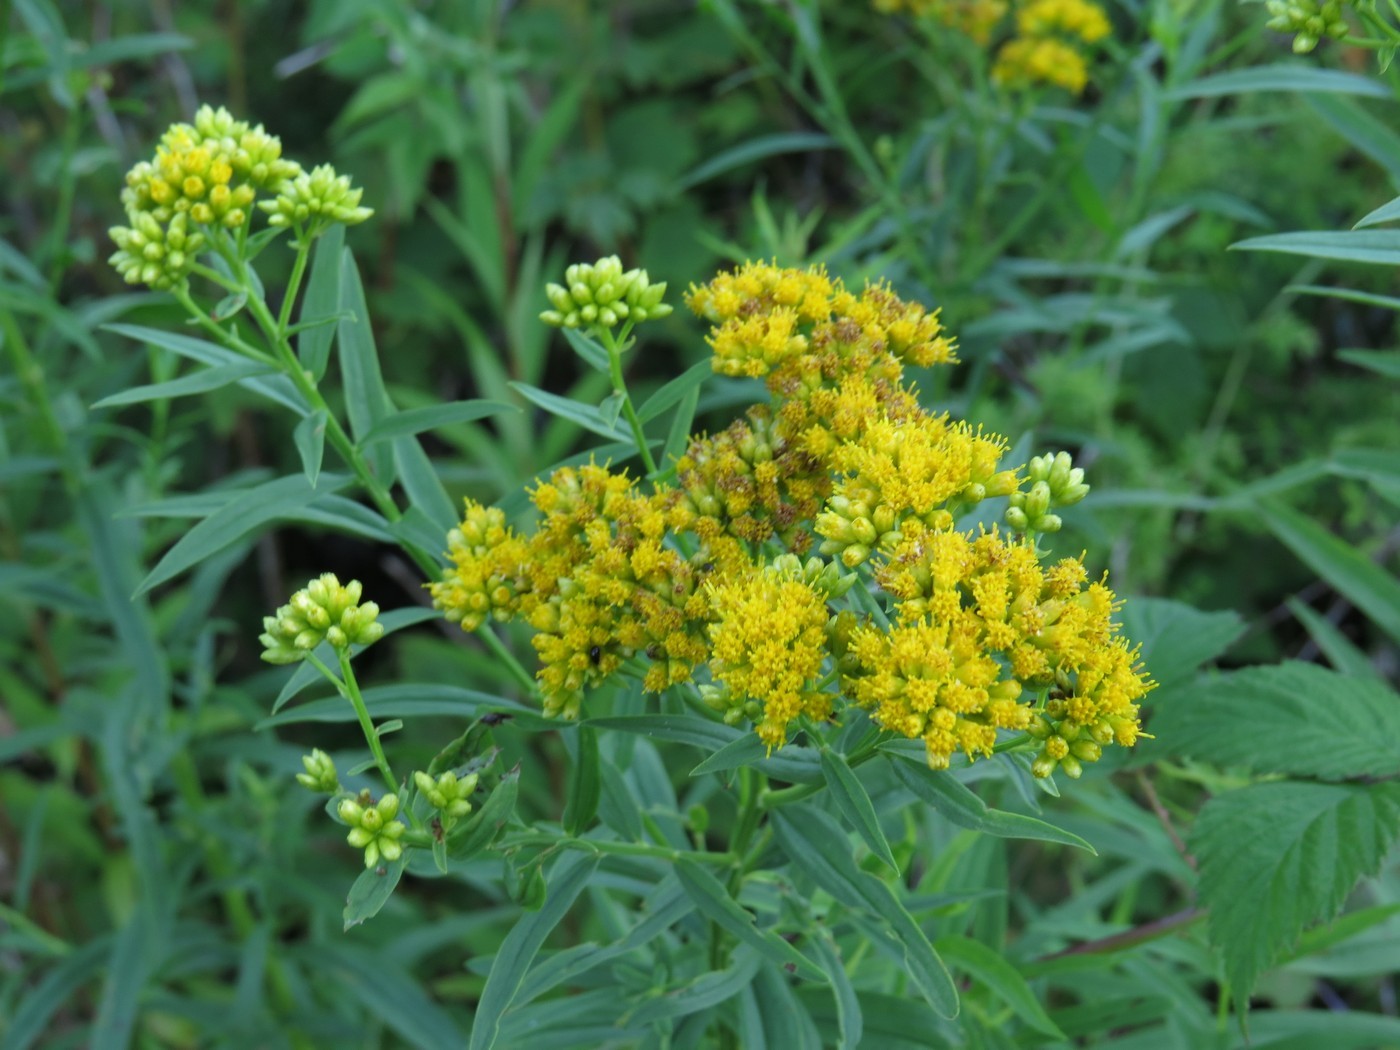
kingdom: Plantae
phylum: Tracheophyta
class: Magnoliopsida
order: Asterales
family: Asteraceae
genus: Euthamia
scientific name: Euthamia graminifolia
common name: Common goldentop
